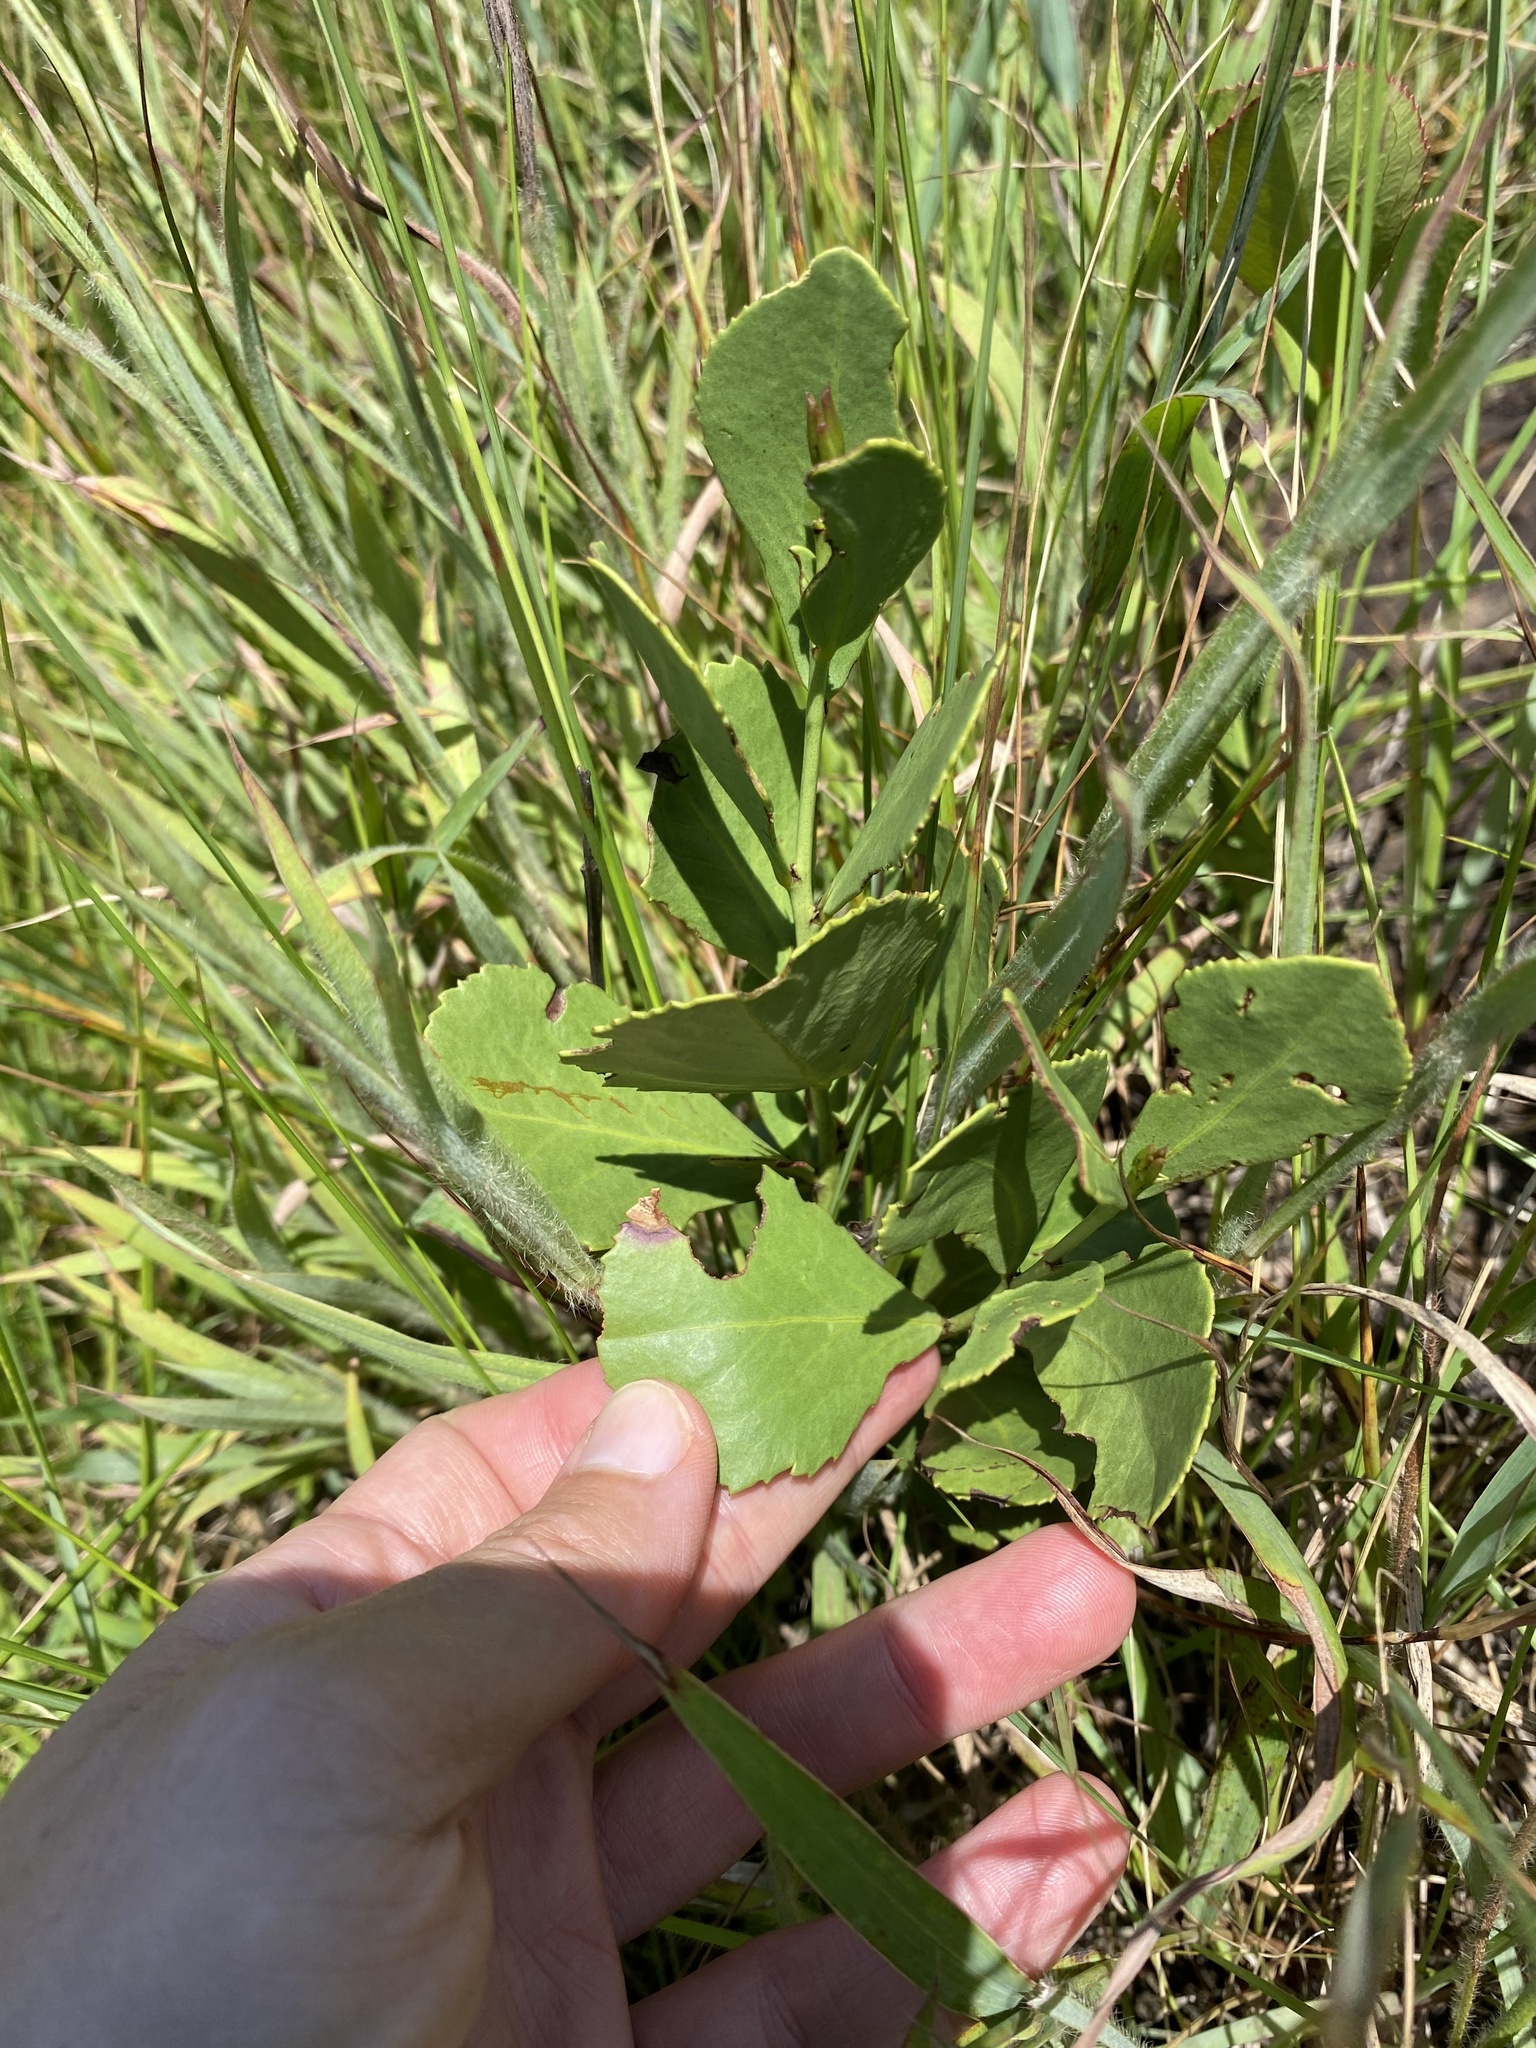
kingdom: Plantae
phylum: Tracheophyta
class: Magnoliopsida
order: Celastrales
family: Celastraceae
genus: Gymnosporia
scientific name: Gymnosporia woodii
